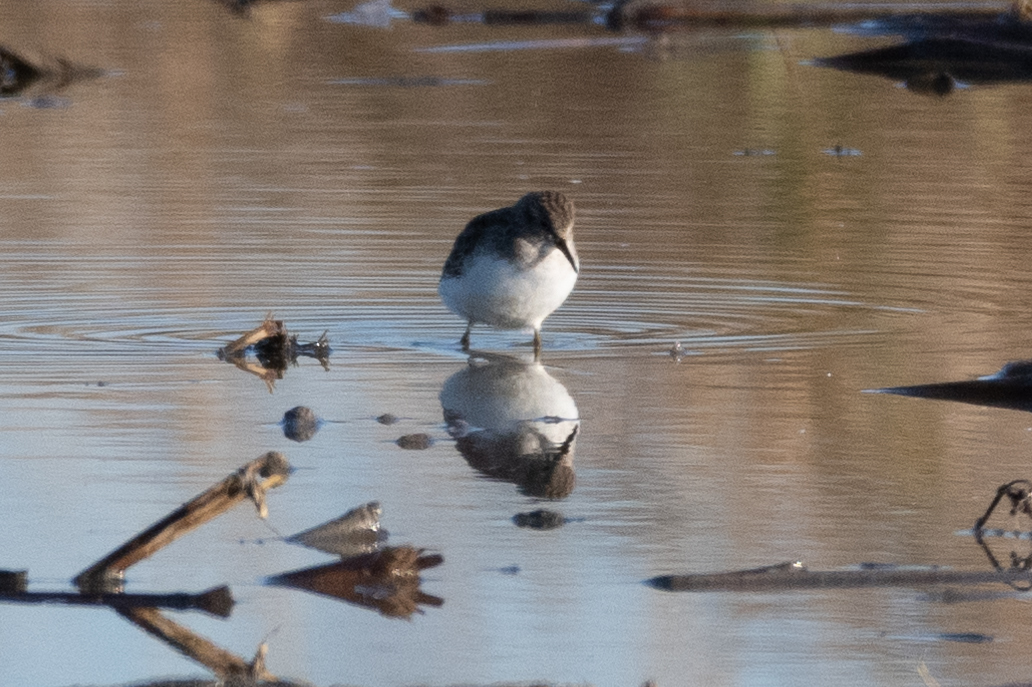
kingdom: Animalia
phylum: Chordata
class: Aves
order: Charadriiformes
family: Scolopacidae
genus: Calidris
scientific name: Calidris minutilla
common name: Least sandpiper
